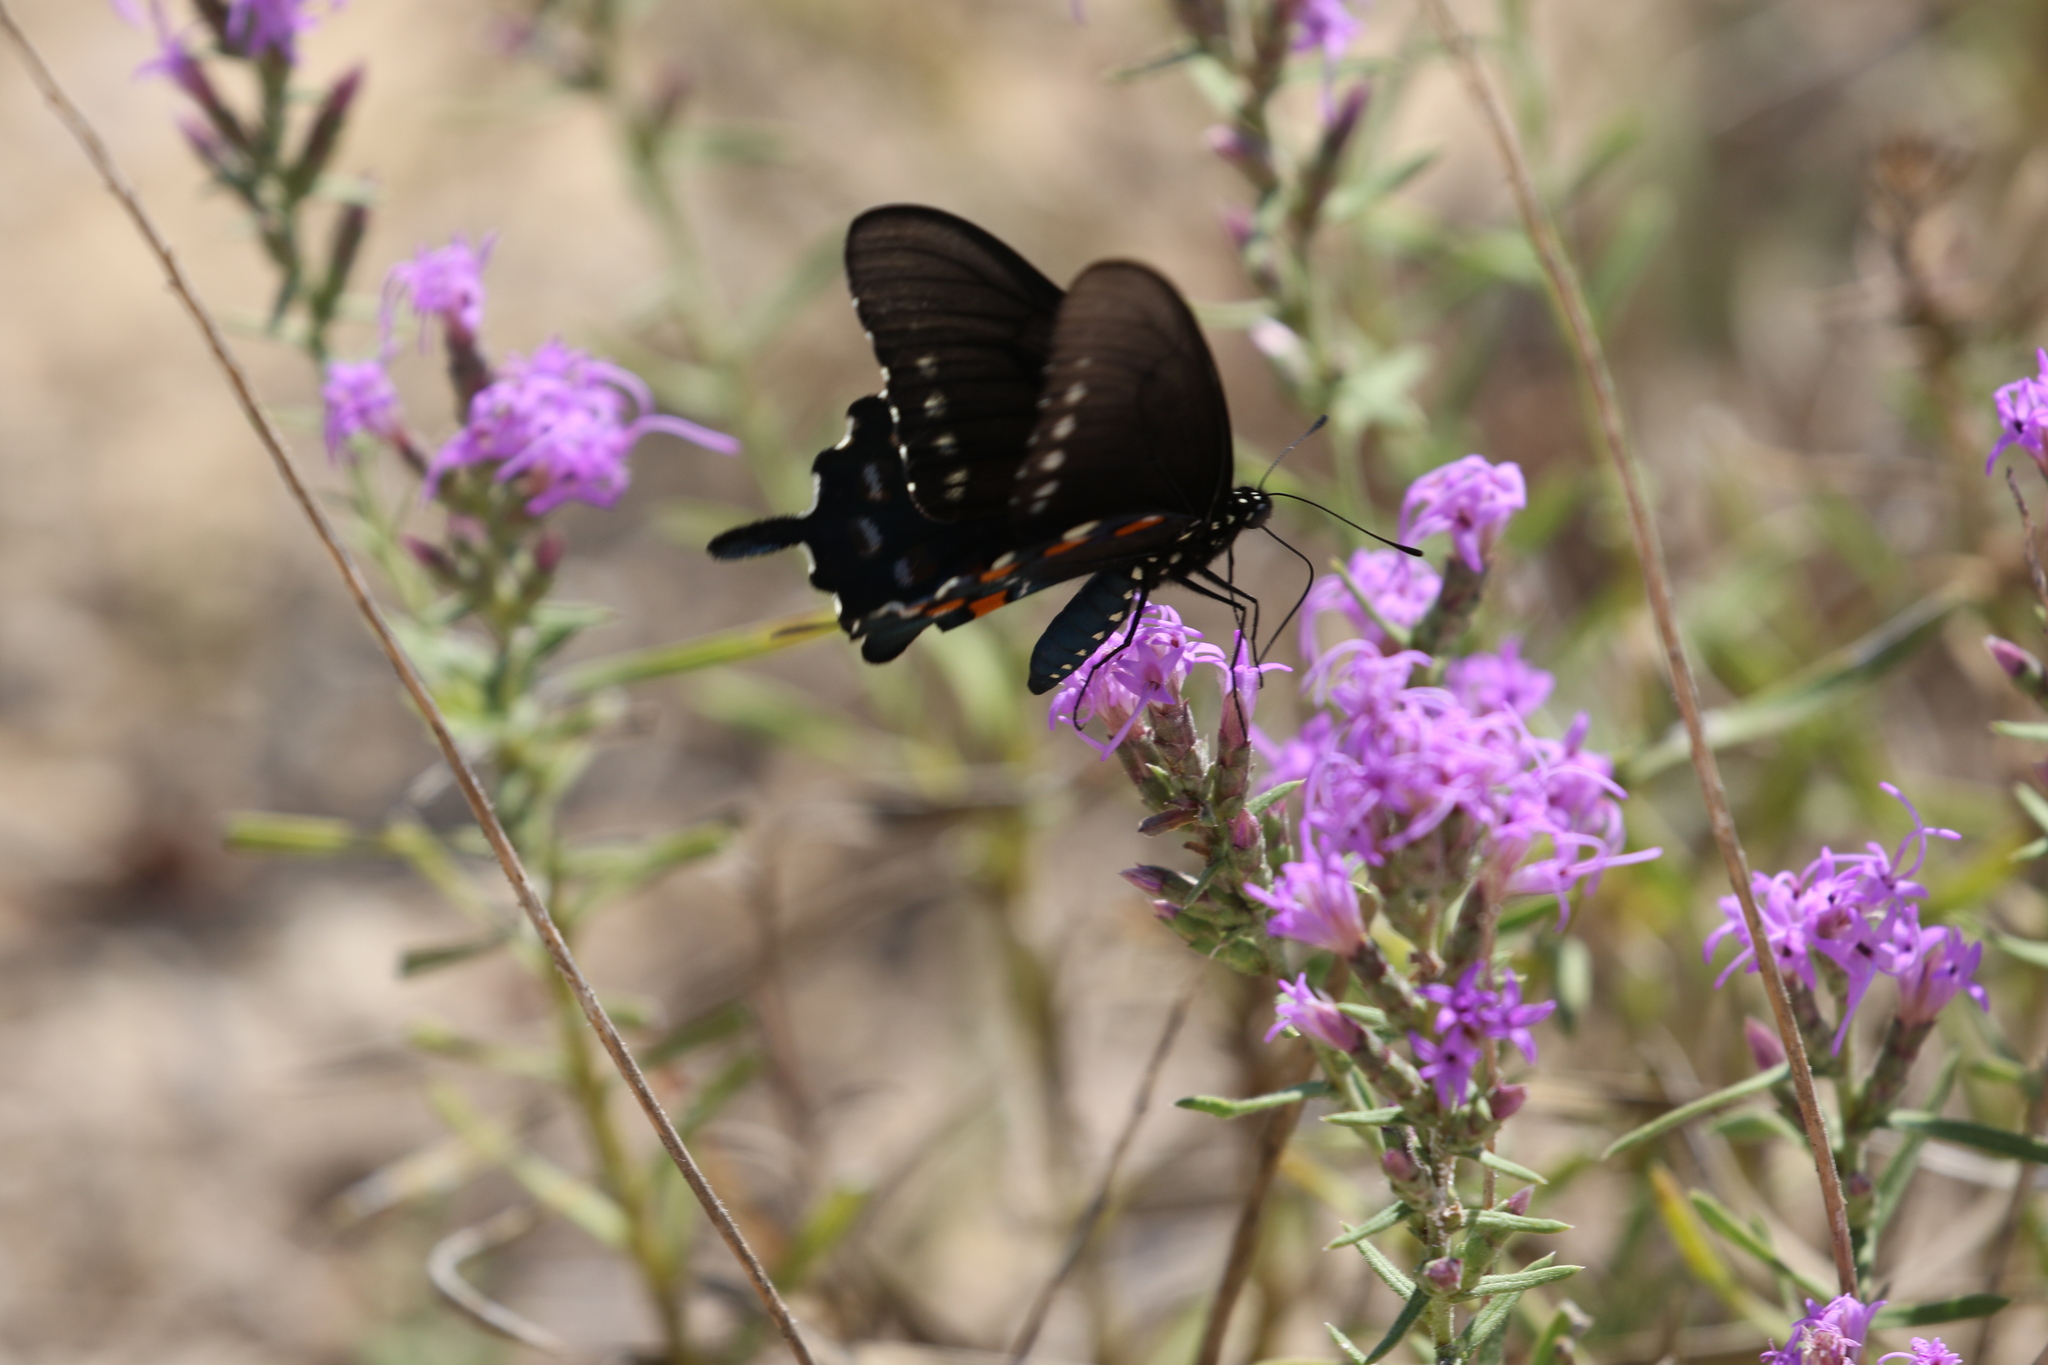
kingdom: Animalia
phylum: Arthropoda
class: Insecta
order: Lepidoptera
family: Papilionidae
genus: Battus
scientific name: Battus philenor
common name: Pipevine swallowtail
